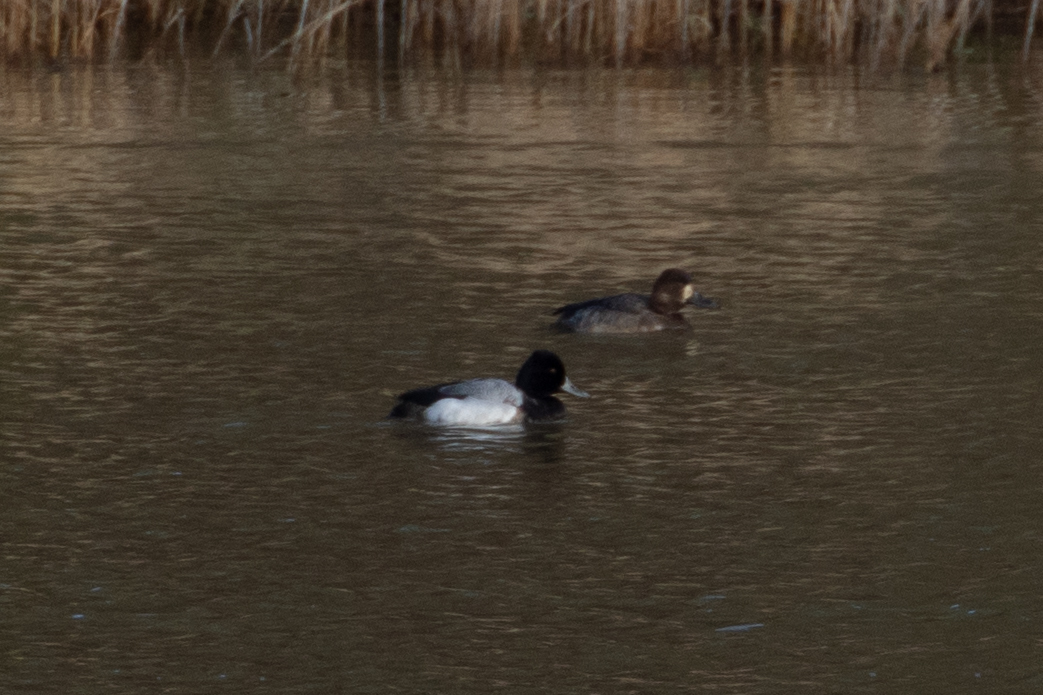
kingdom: Animalia
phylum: Chordata
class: Aves
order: Anseriformes
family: Anatidae
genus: Aythya
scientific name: Aythya affinis
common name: Lesser scaup
